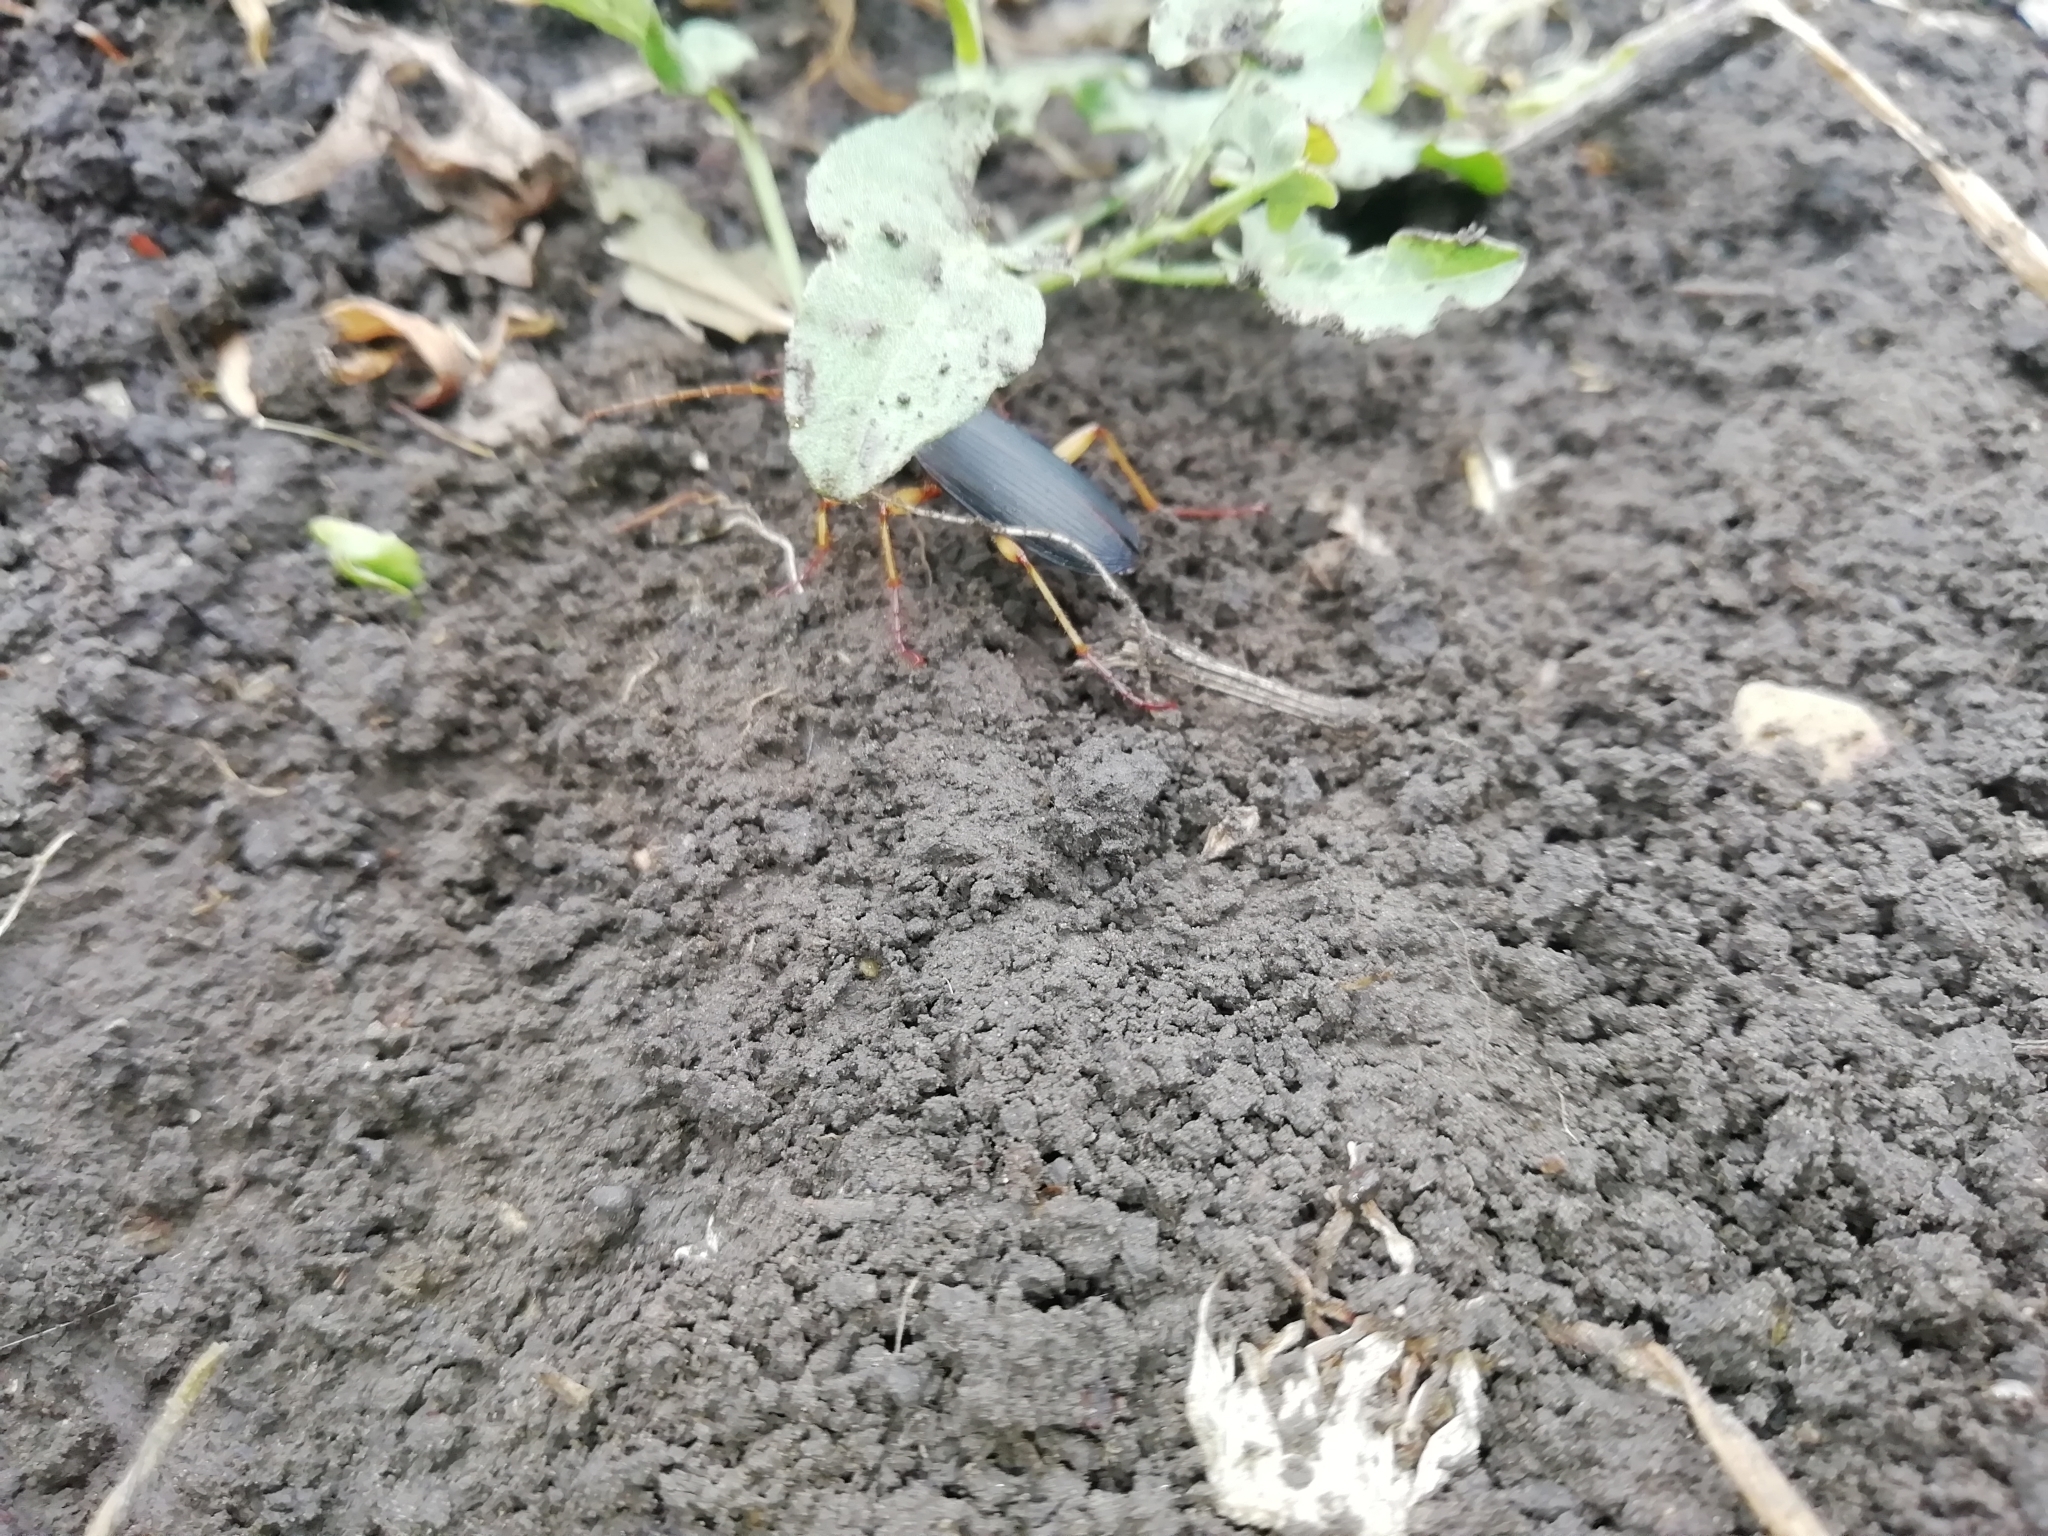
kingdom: Animalia
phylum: Arthropoda
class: Insecta
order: Coleoptera
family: Carabidae
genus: Dolichus
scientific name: Dolichus halensis
